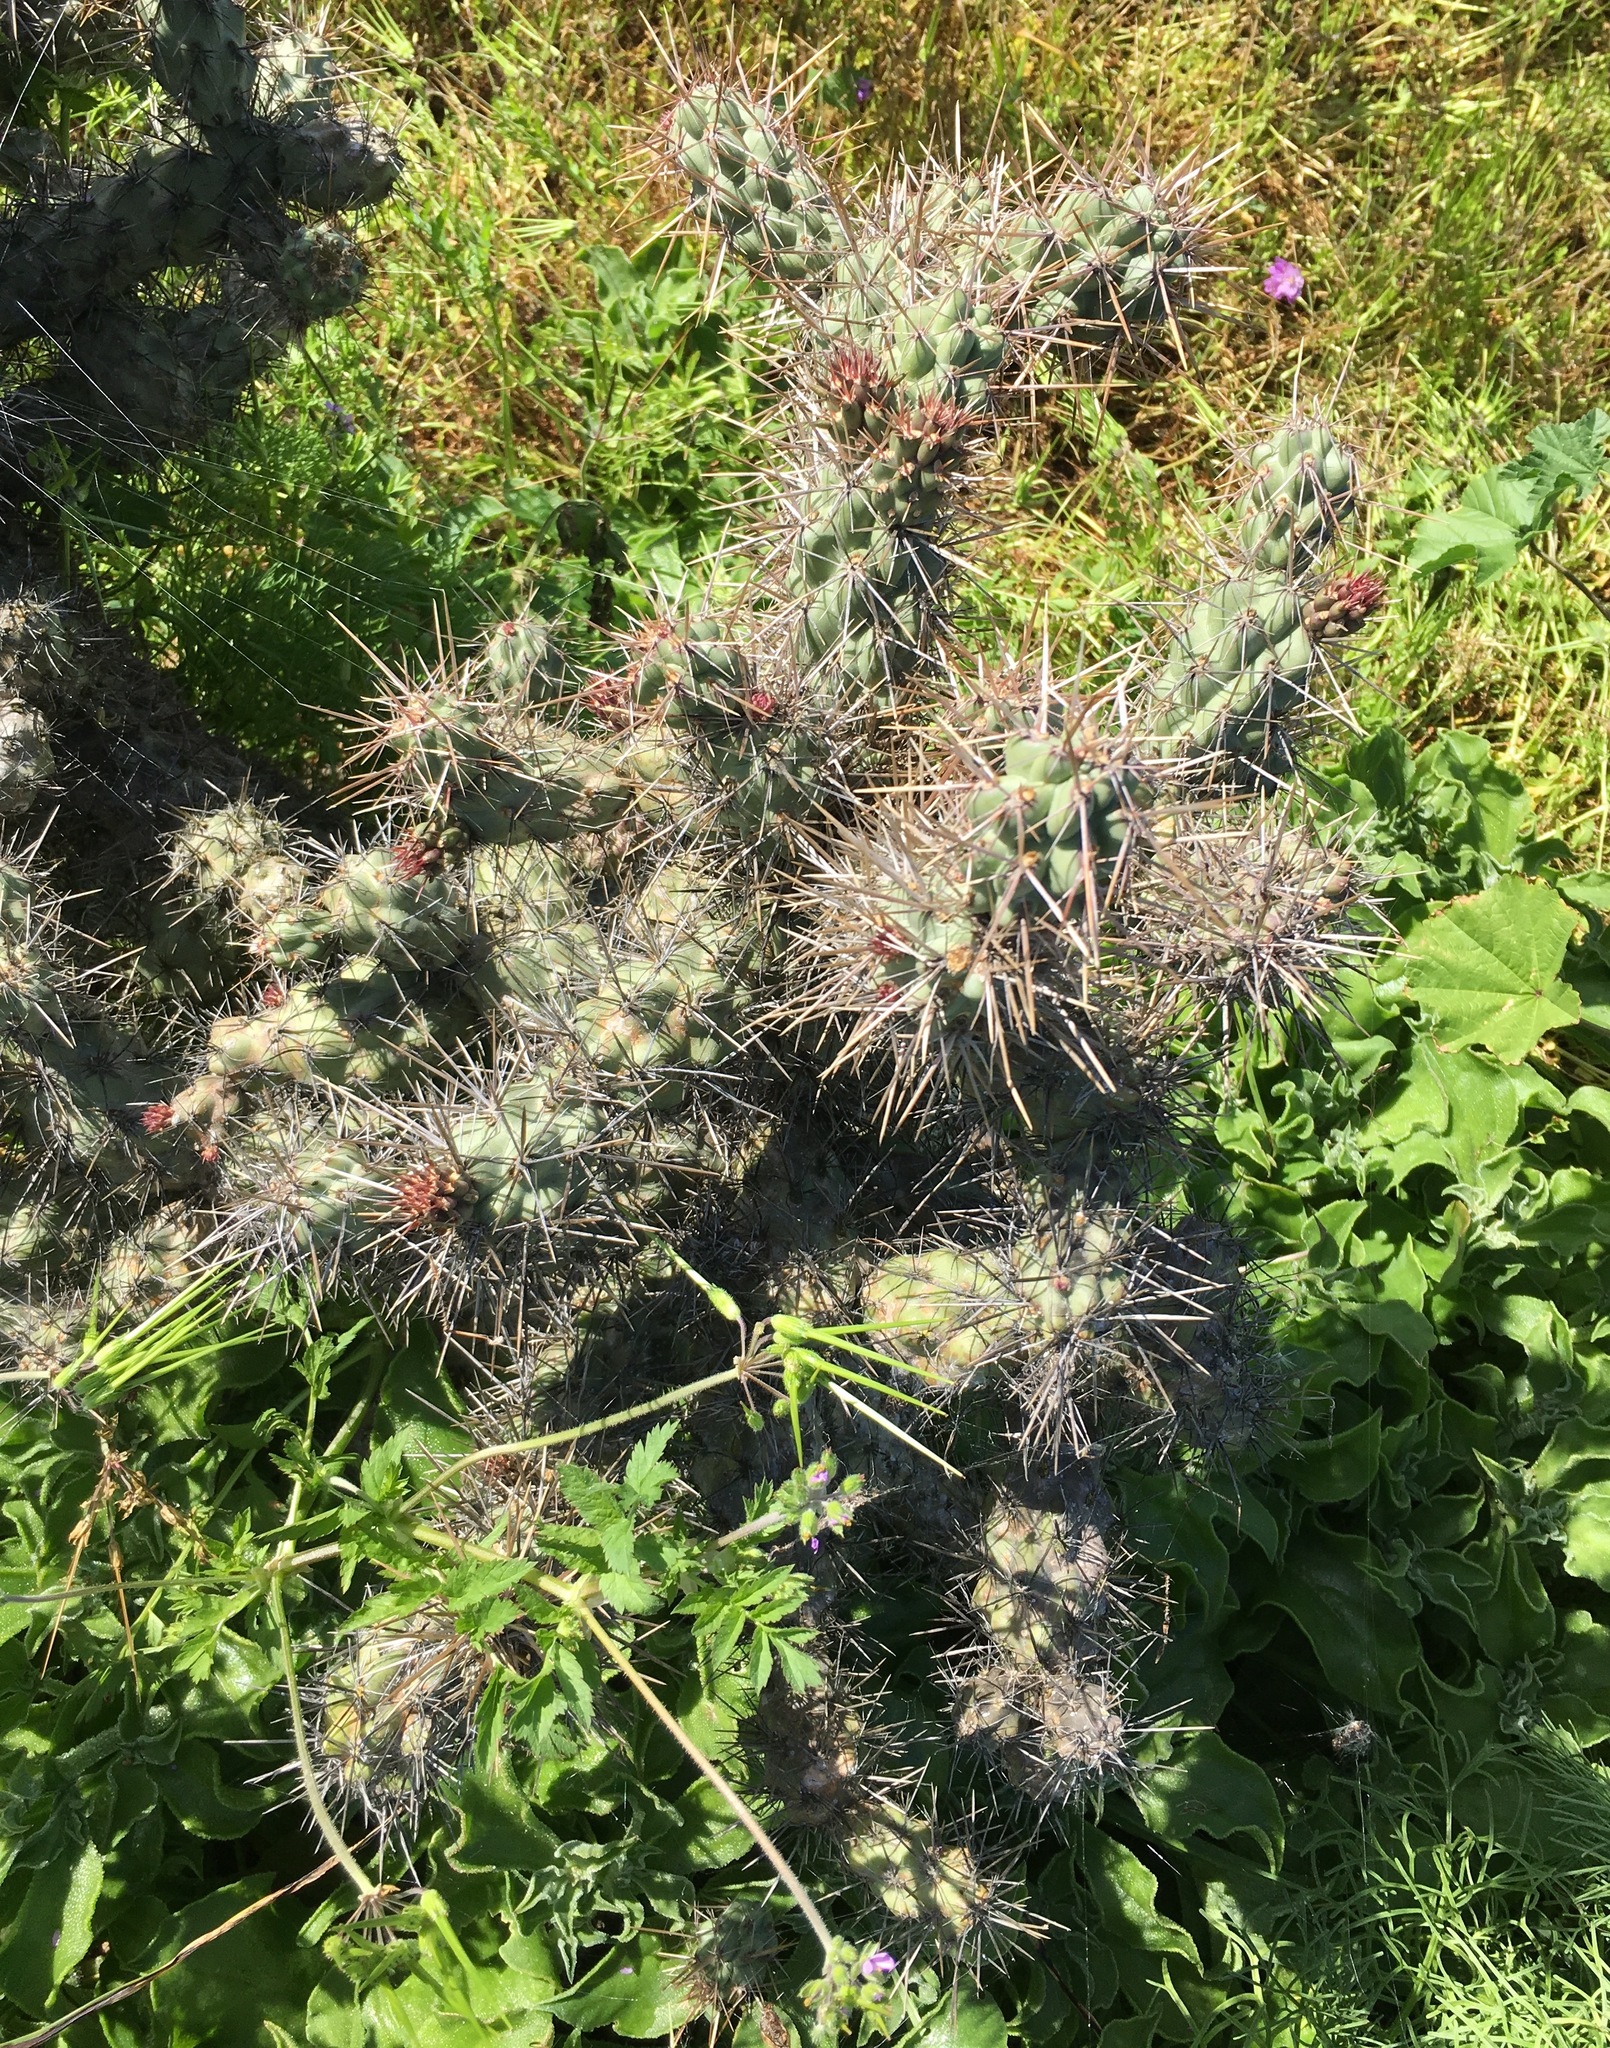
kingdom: Plantae
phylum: Tracheophyta
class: Magnoliopsida
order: Caryophyllales
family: Cactaceae
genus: Cylindropuntia
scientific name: Cylindropuntia prolifera
